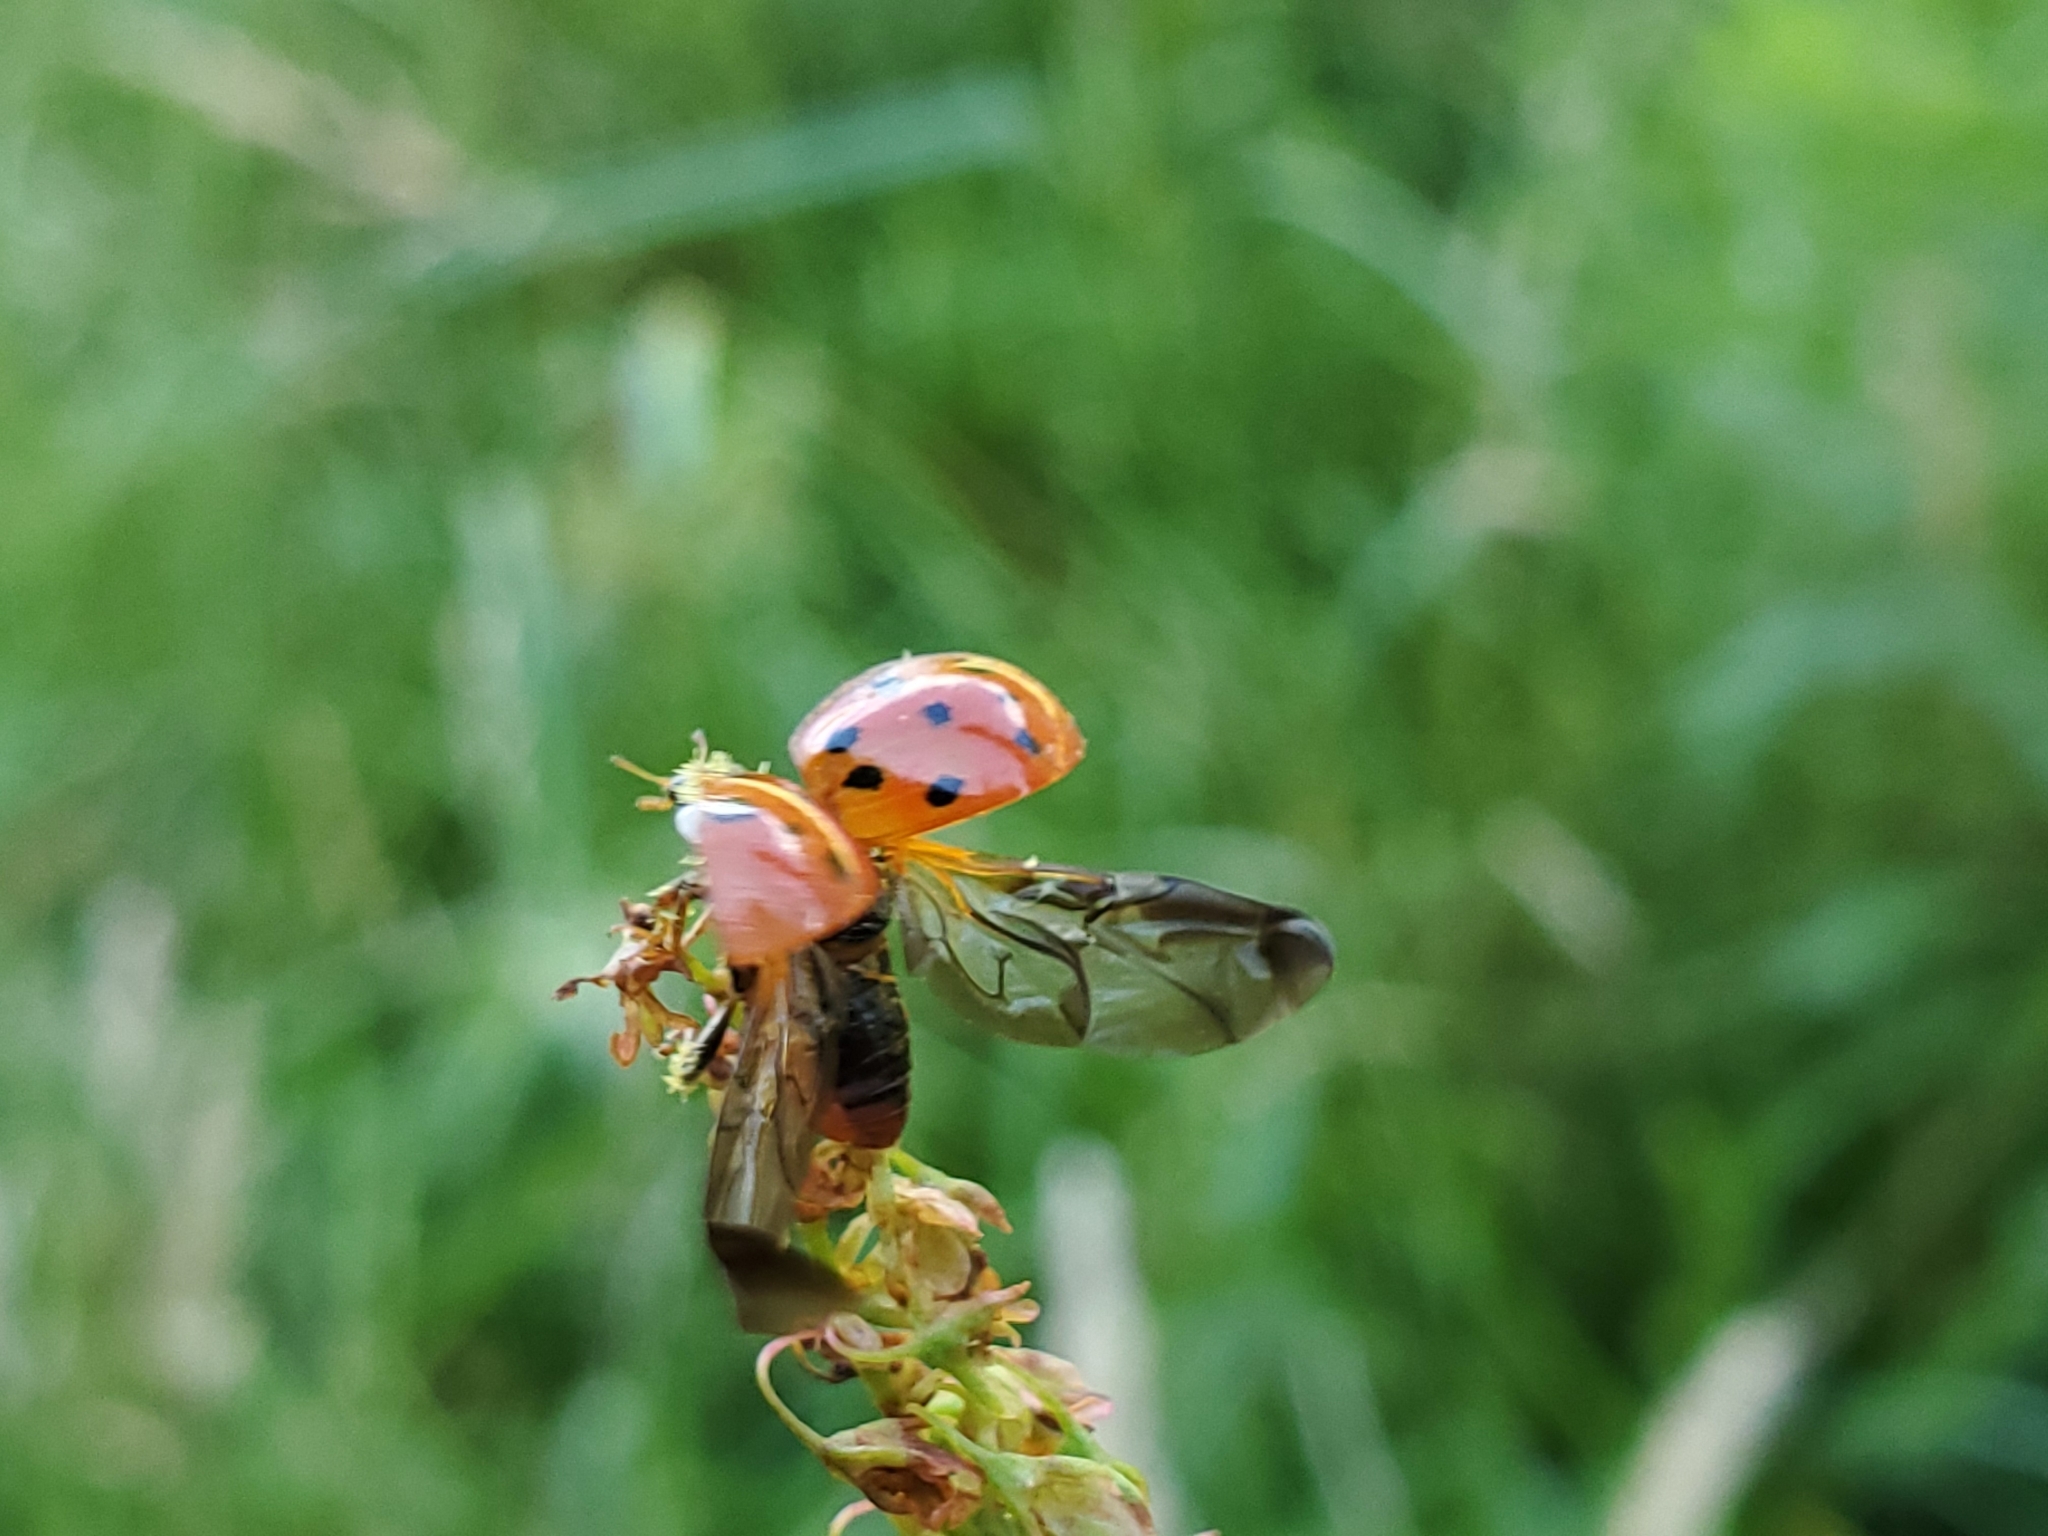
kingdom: Animalia
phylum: Arthropoda
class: Insecta
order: Coleoptera
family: Coccinellidae
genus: Harmonia
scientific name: Harmonia axyridis
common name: Harlequin ladybird
